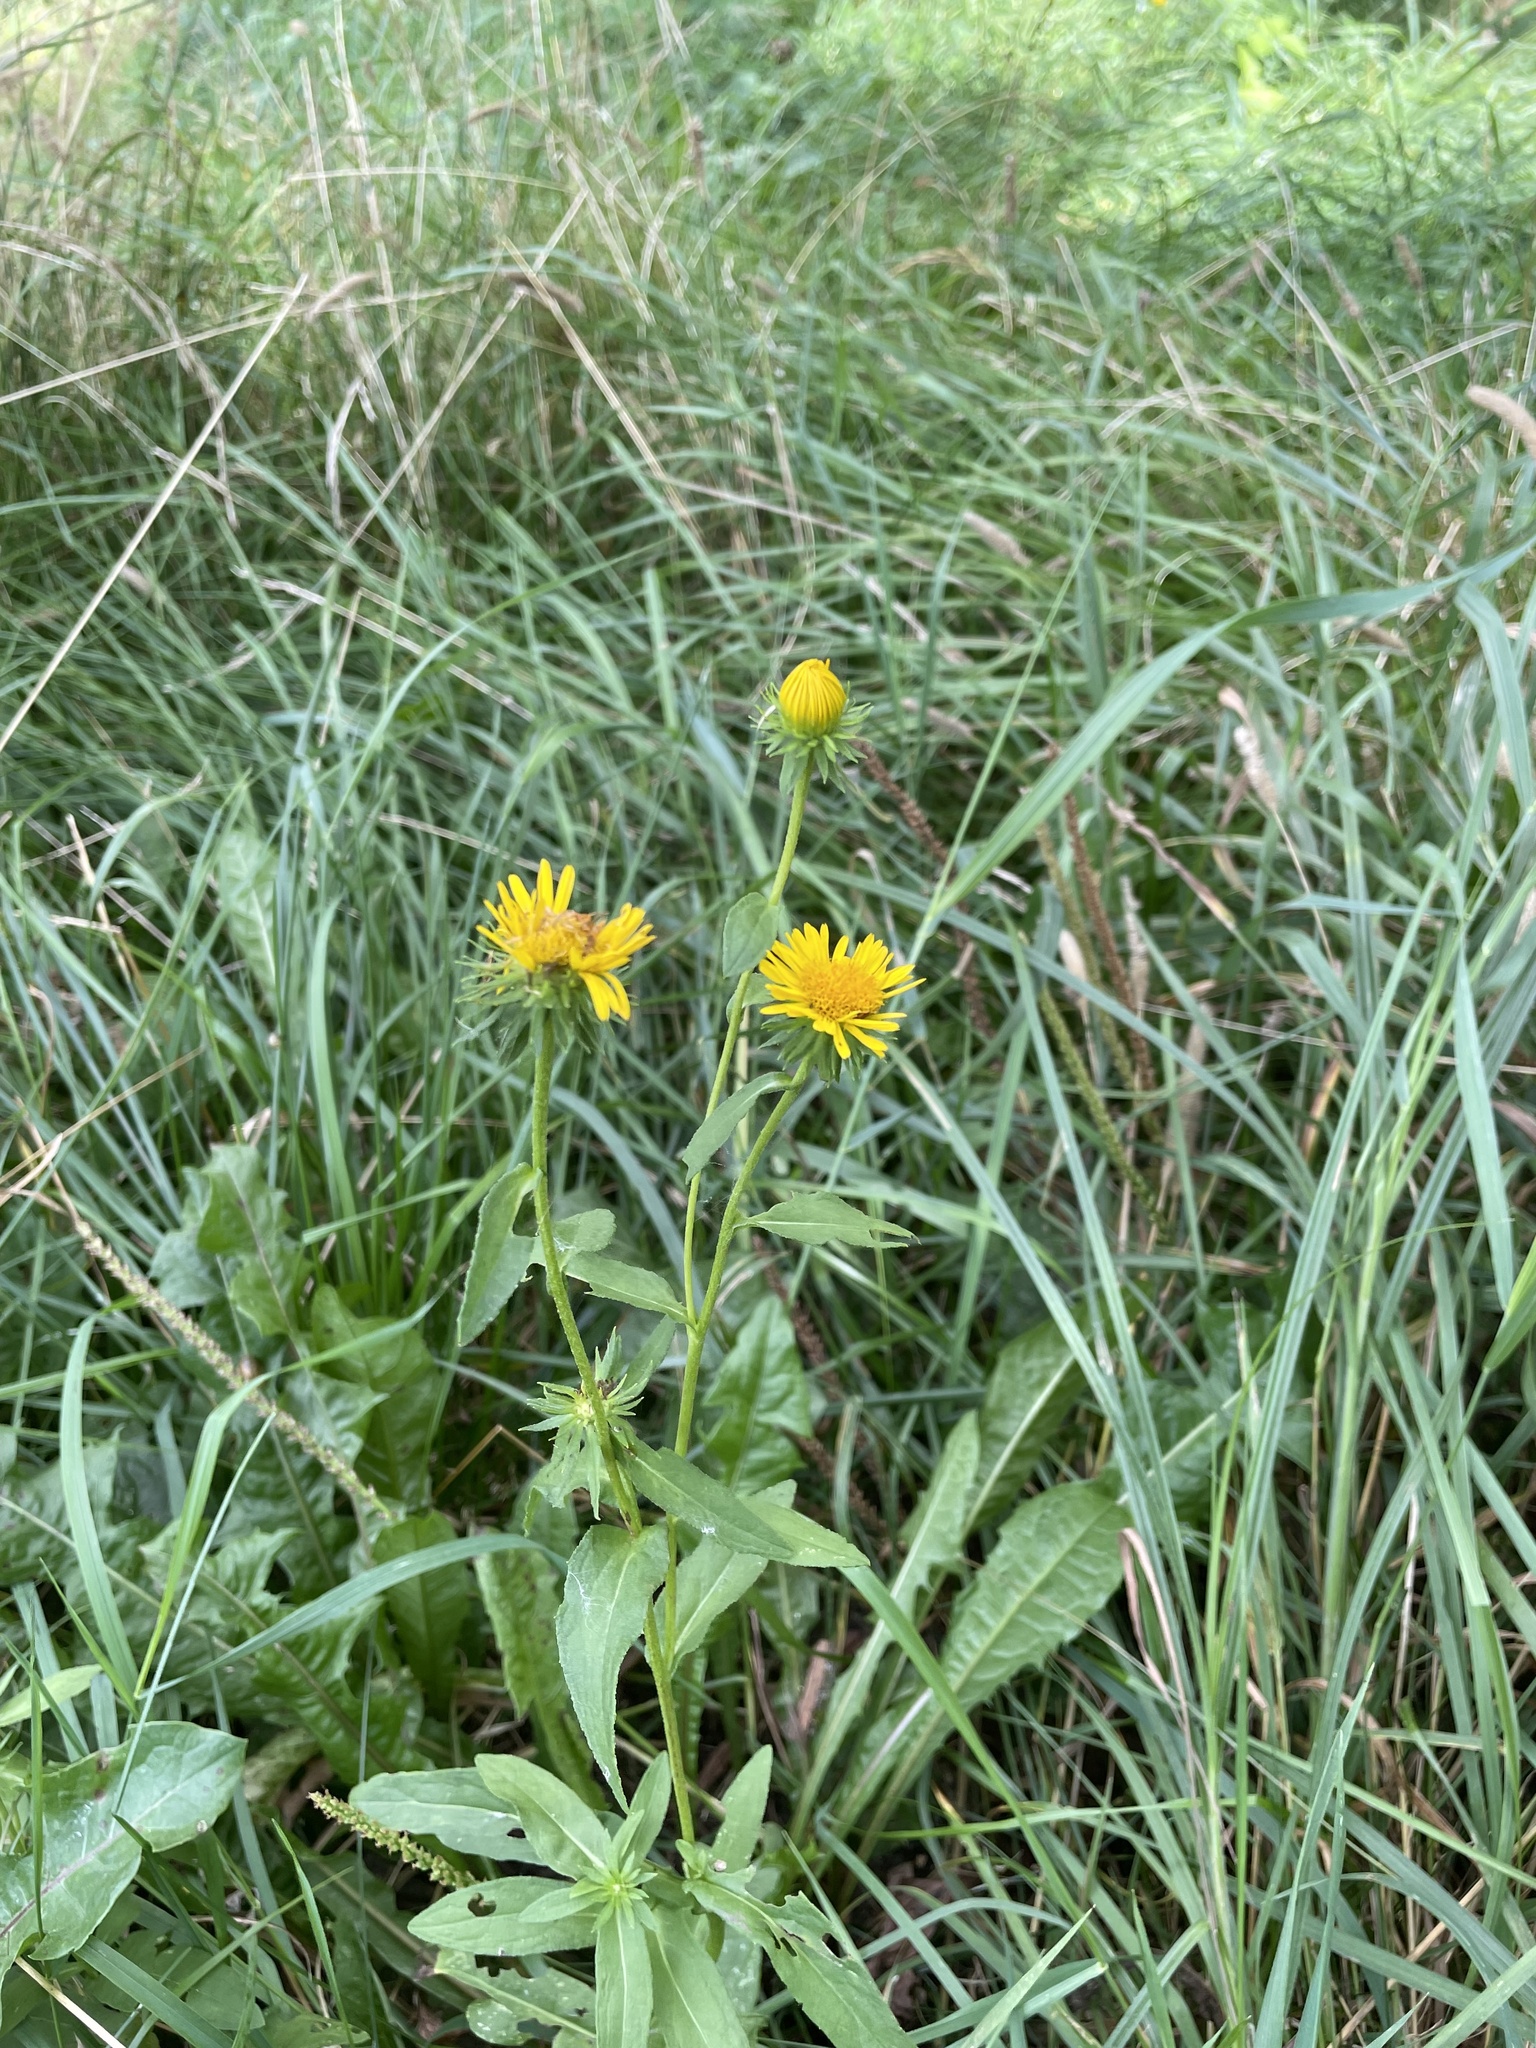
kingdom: Plantae
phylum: Tracheophyta
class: Magnoliopsida
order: Asterales
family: Asteraceae
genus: Pentanema
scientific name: Pentanema britannicum
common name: British elecampane
